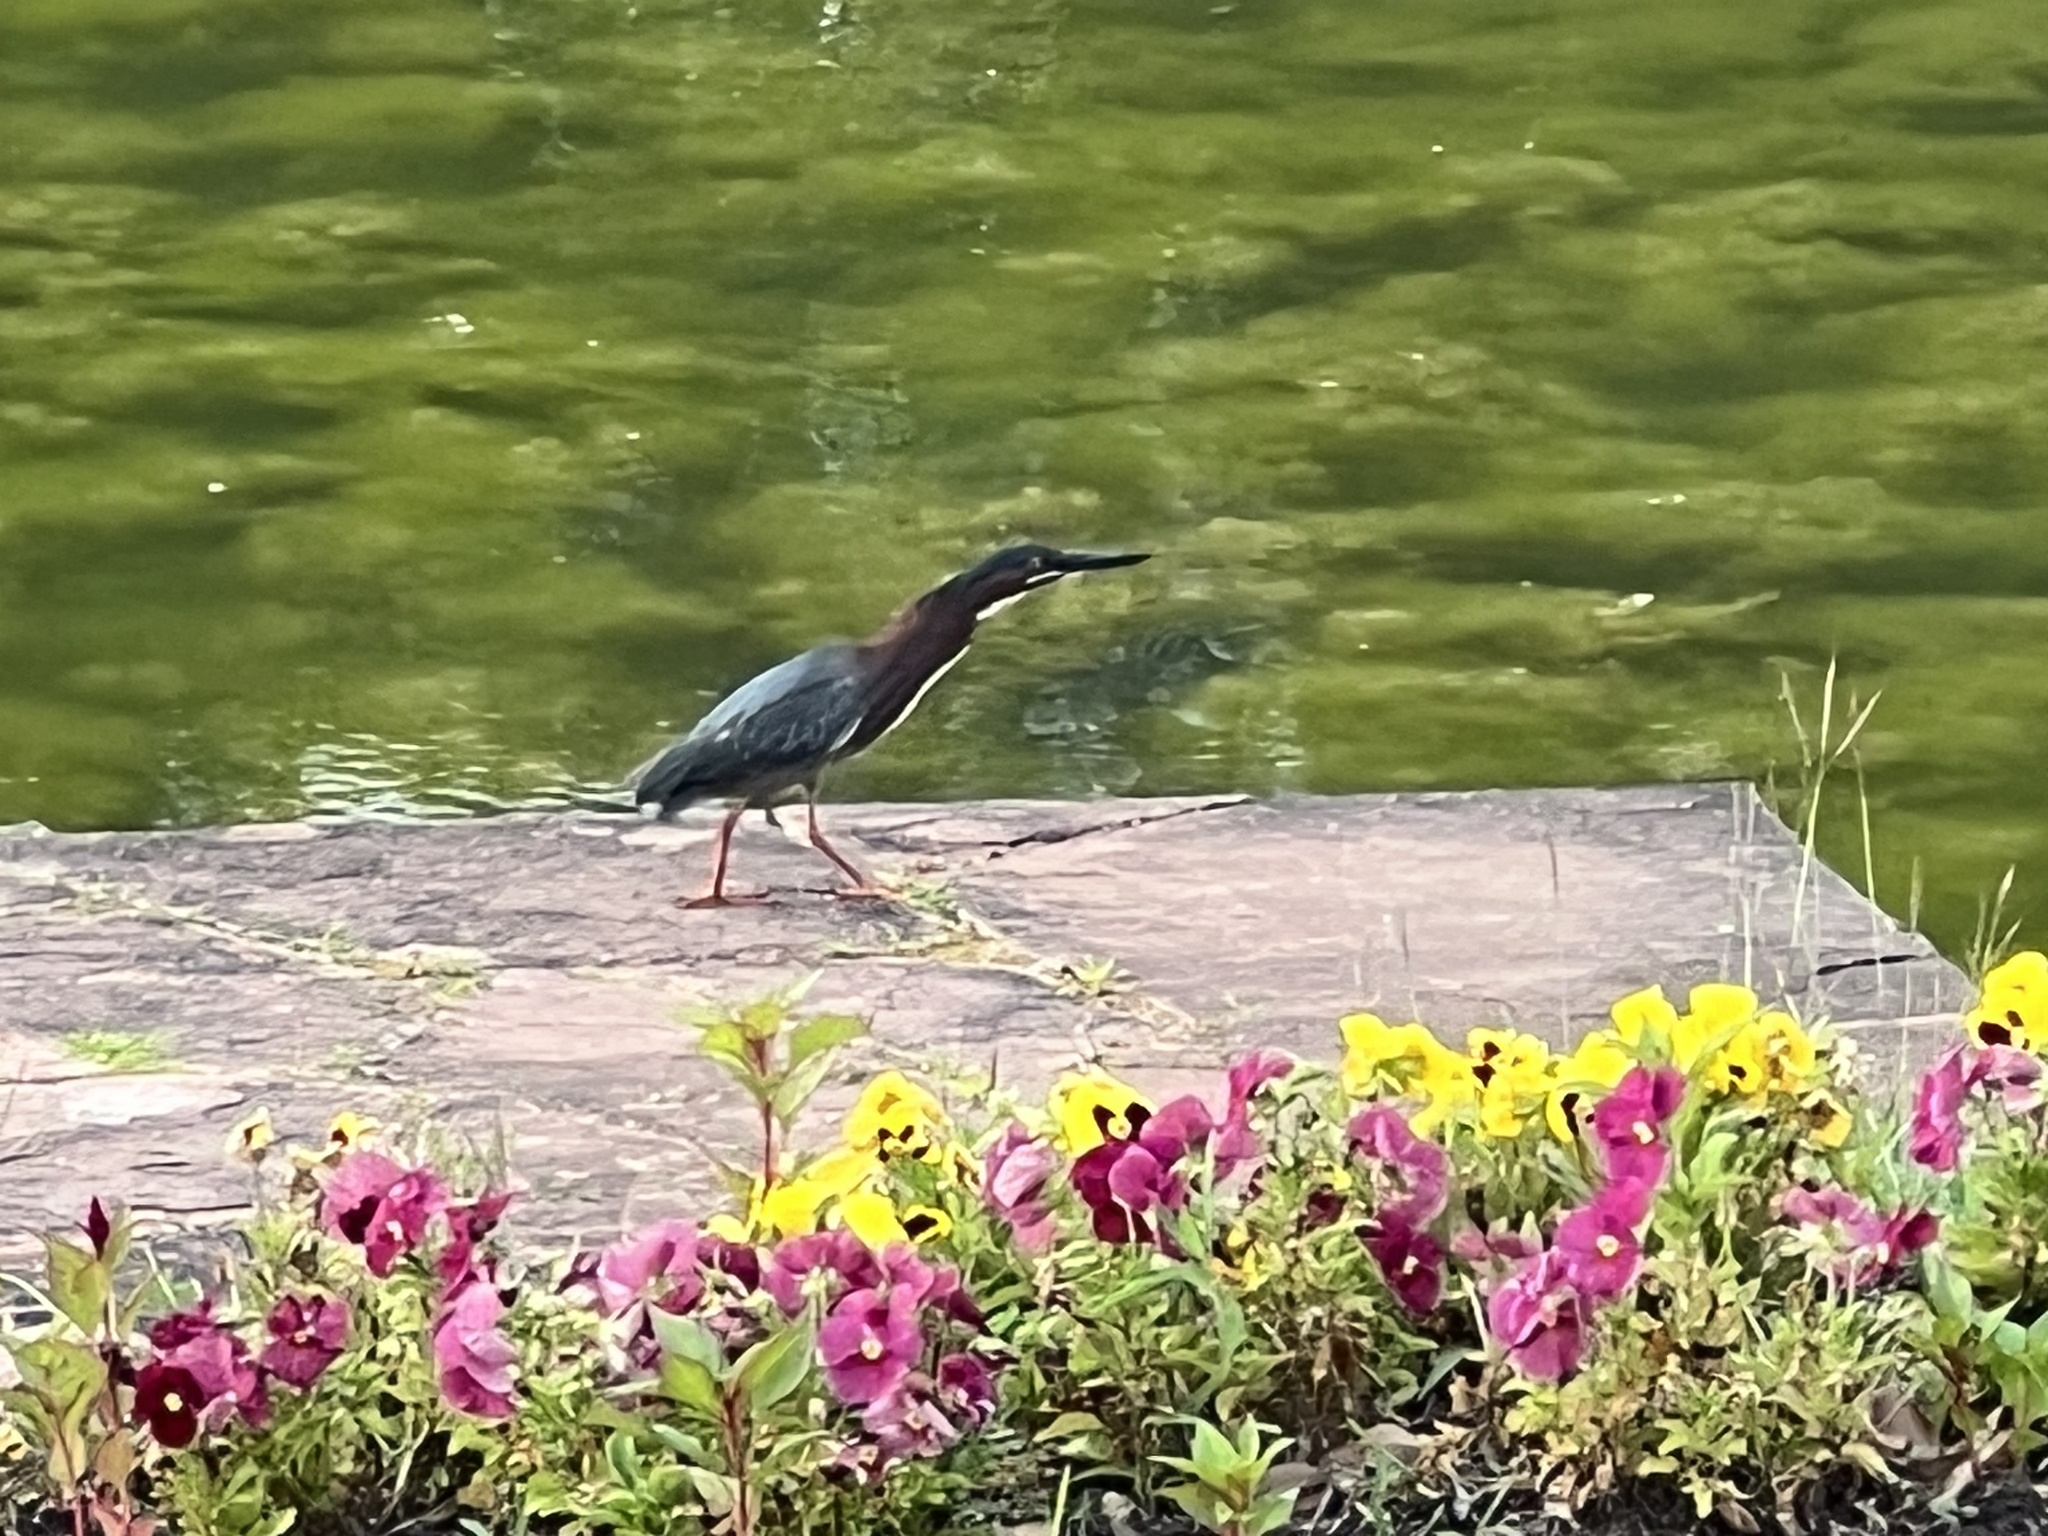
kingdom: Animalia
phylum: Chordata
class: Aves
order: Pelecaniformes
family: Ardeidae
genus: Butorides
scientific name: Butorides virescens
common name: Green heron
